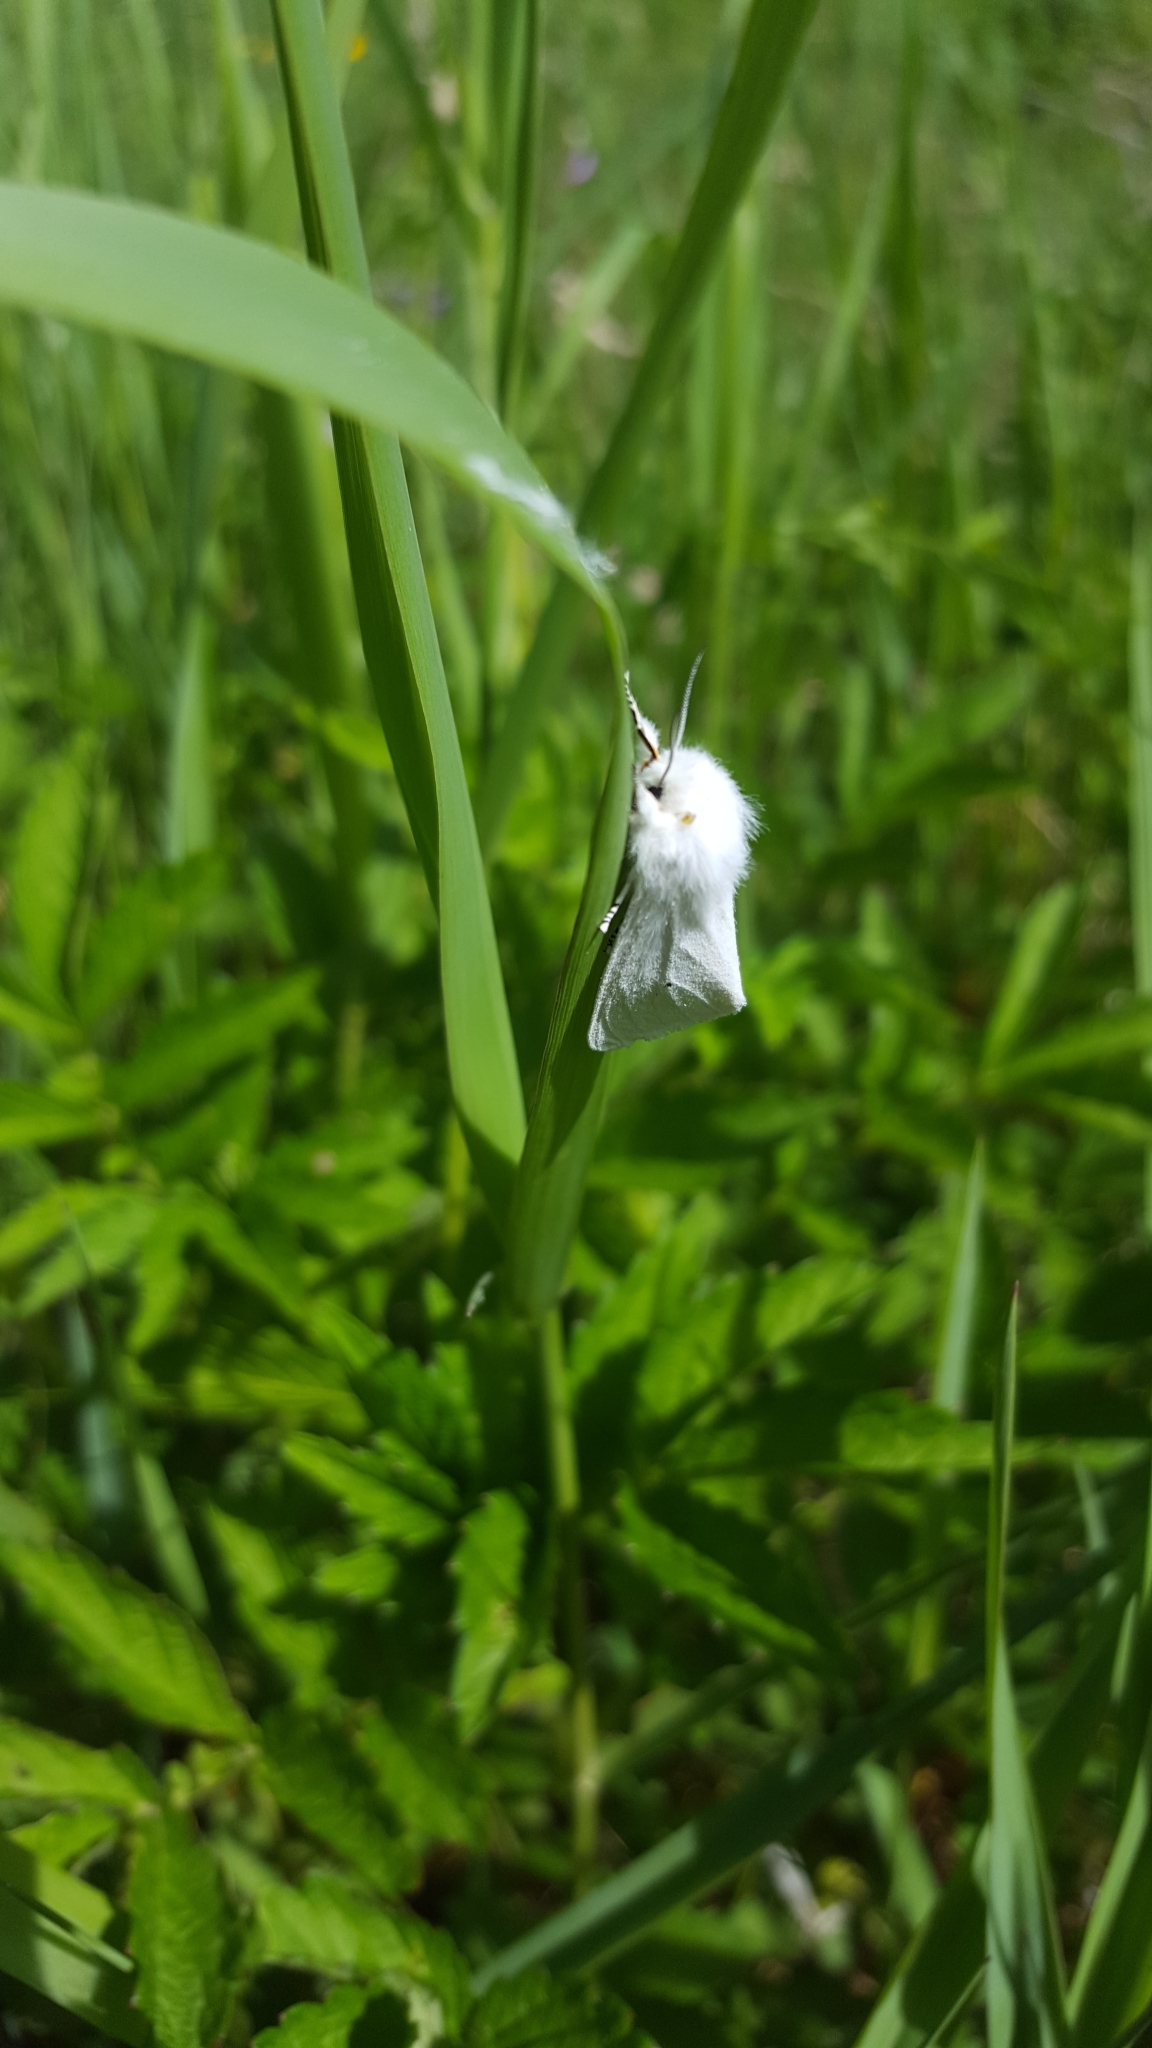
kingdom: Animalia
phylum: Arthropoda
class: Insecta
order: Lepidoptera
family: Erebidae
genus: Spilosoma
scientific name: Spilosoma virginica
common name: Virginia tiger moth
